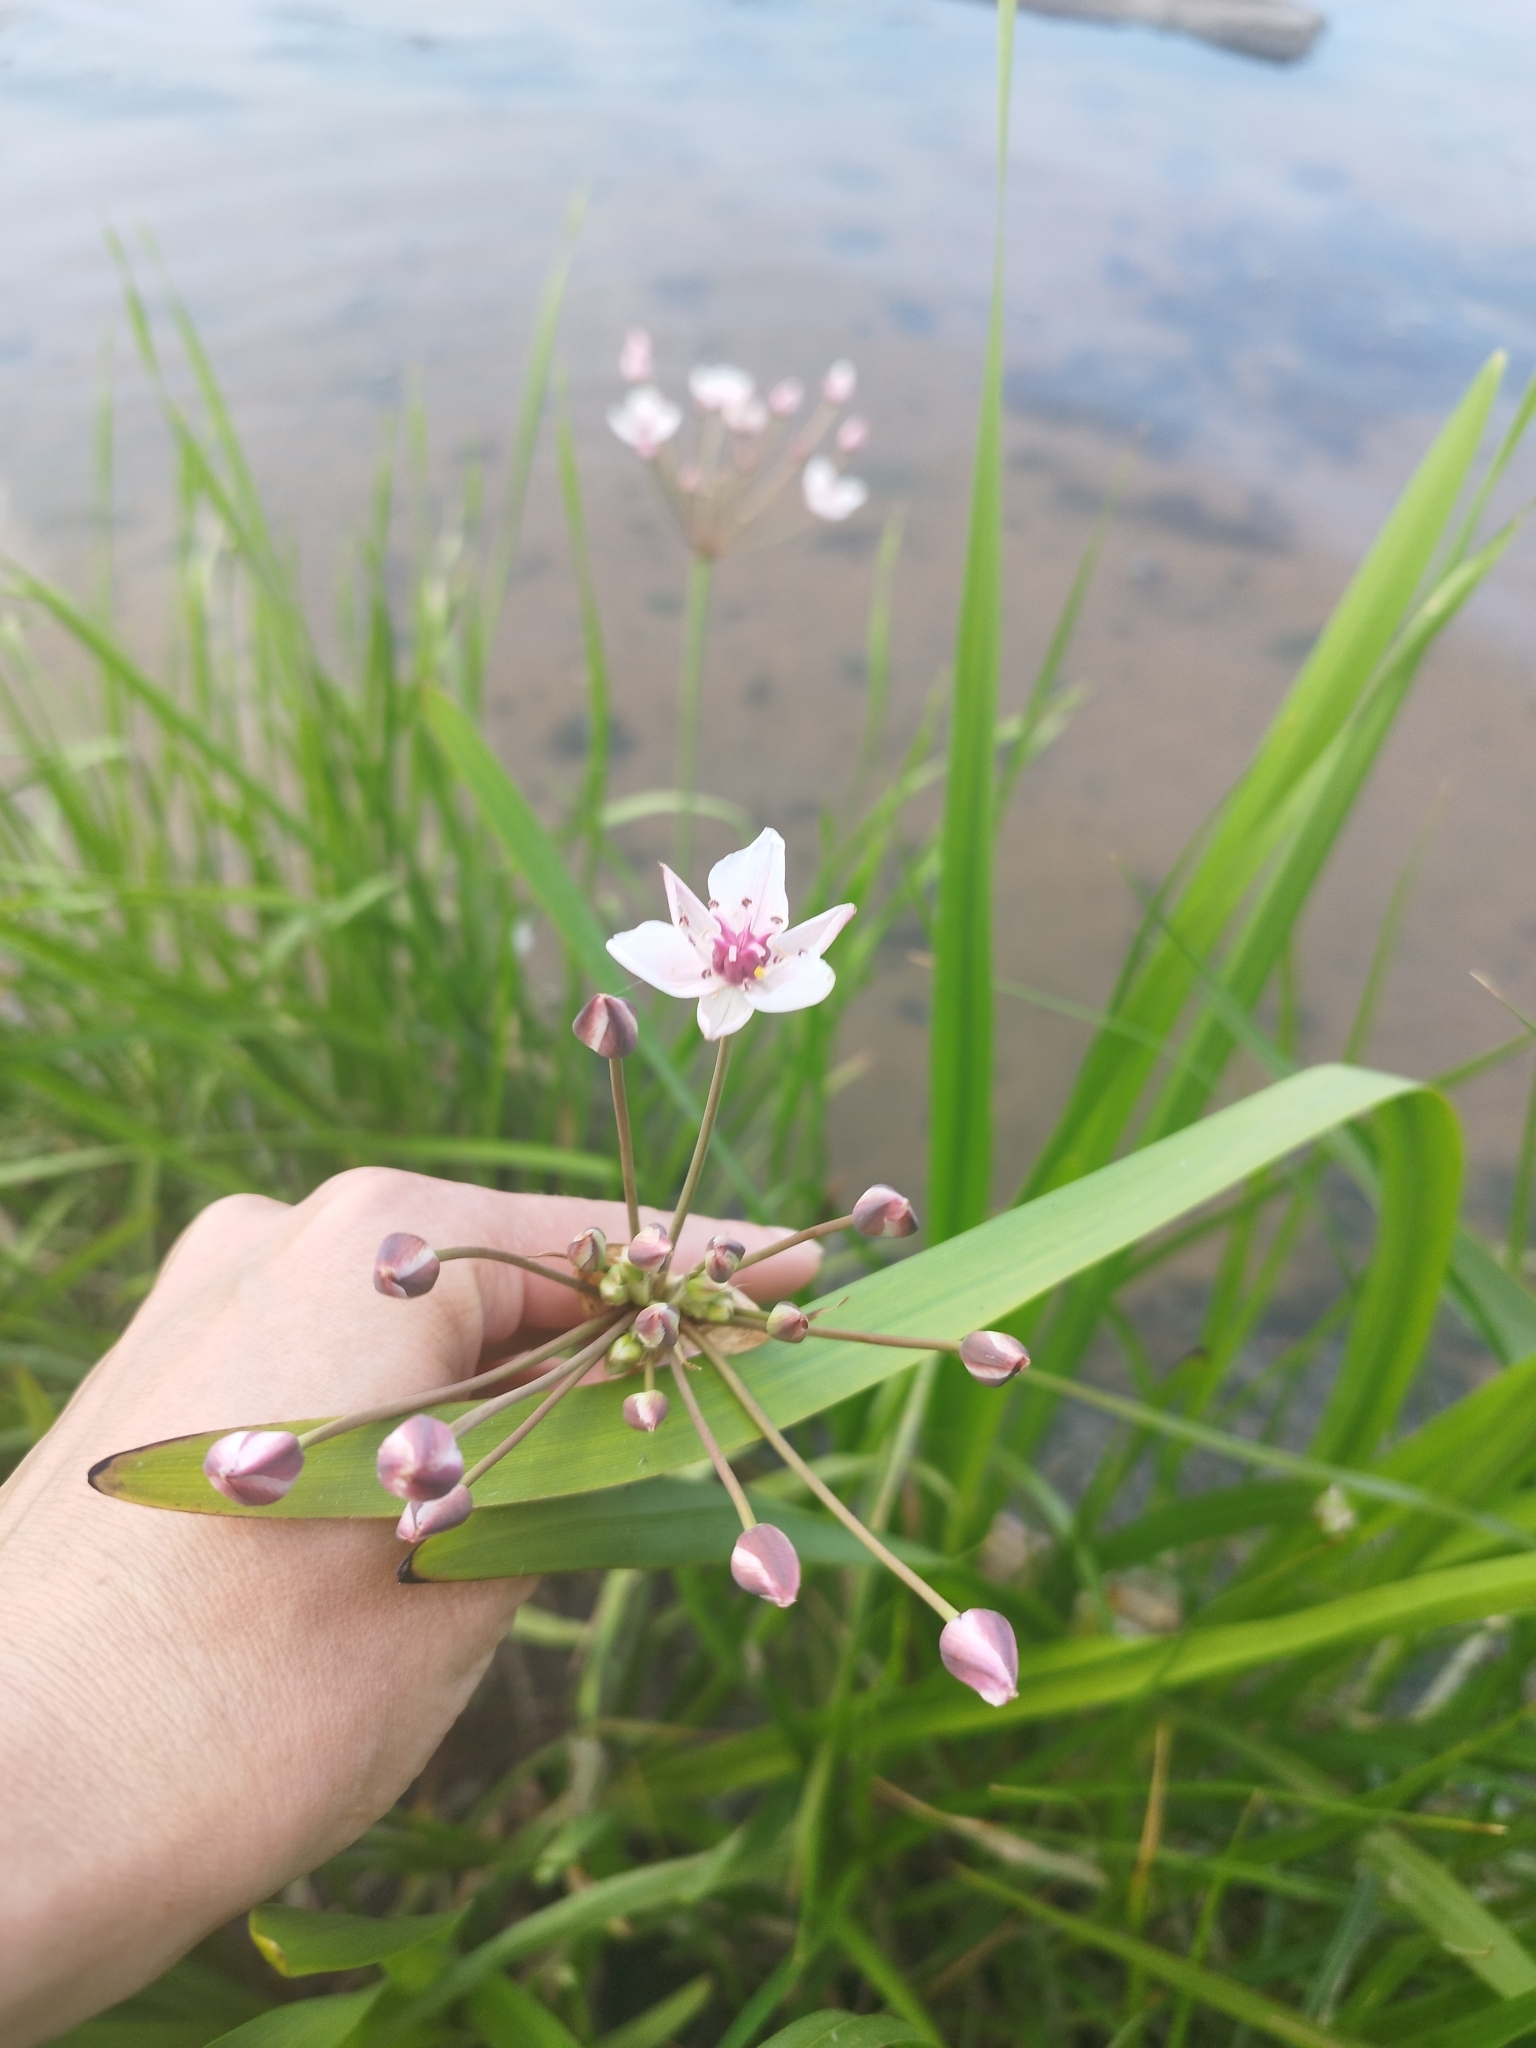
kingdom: Plantae
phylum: Tracheophyta
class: Liliopsida
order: Alismatales
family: Butomaceae
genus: Butomus
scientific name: Butomus umbellatus
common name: Flowering-rush
